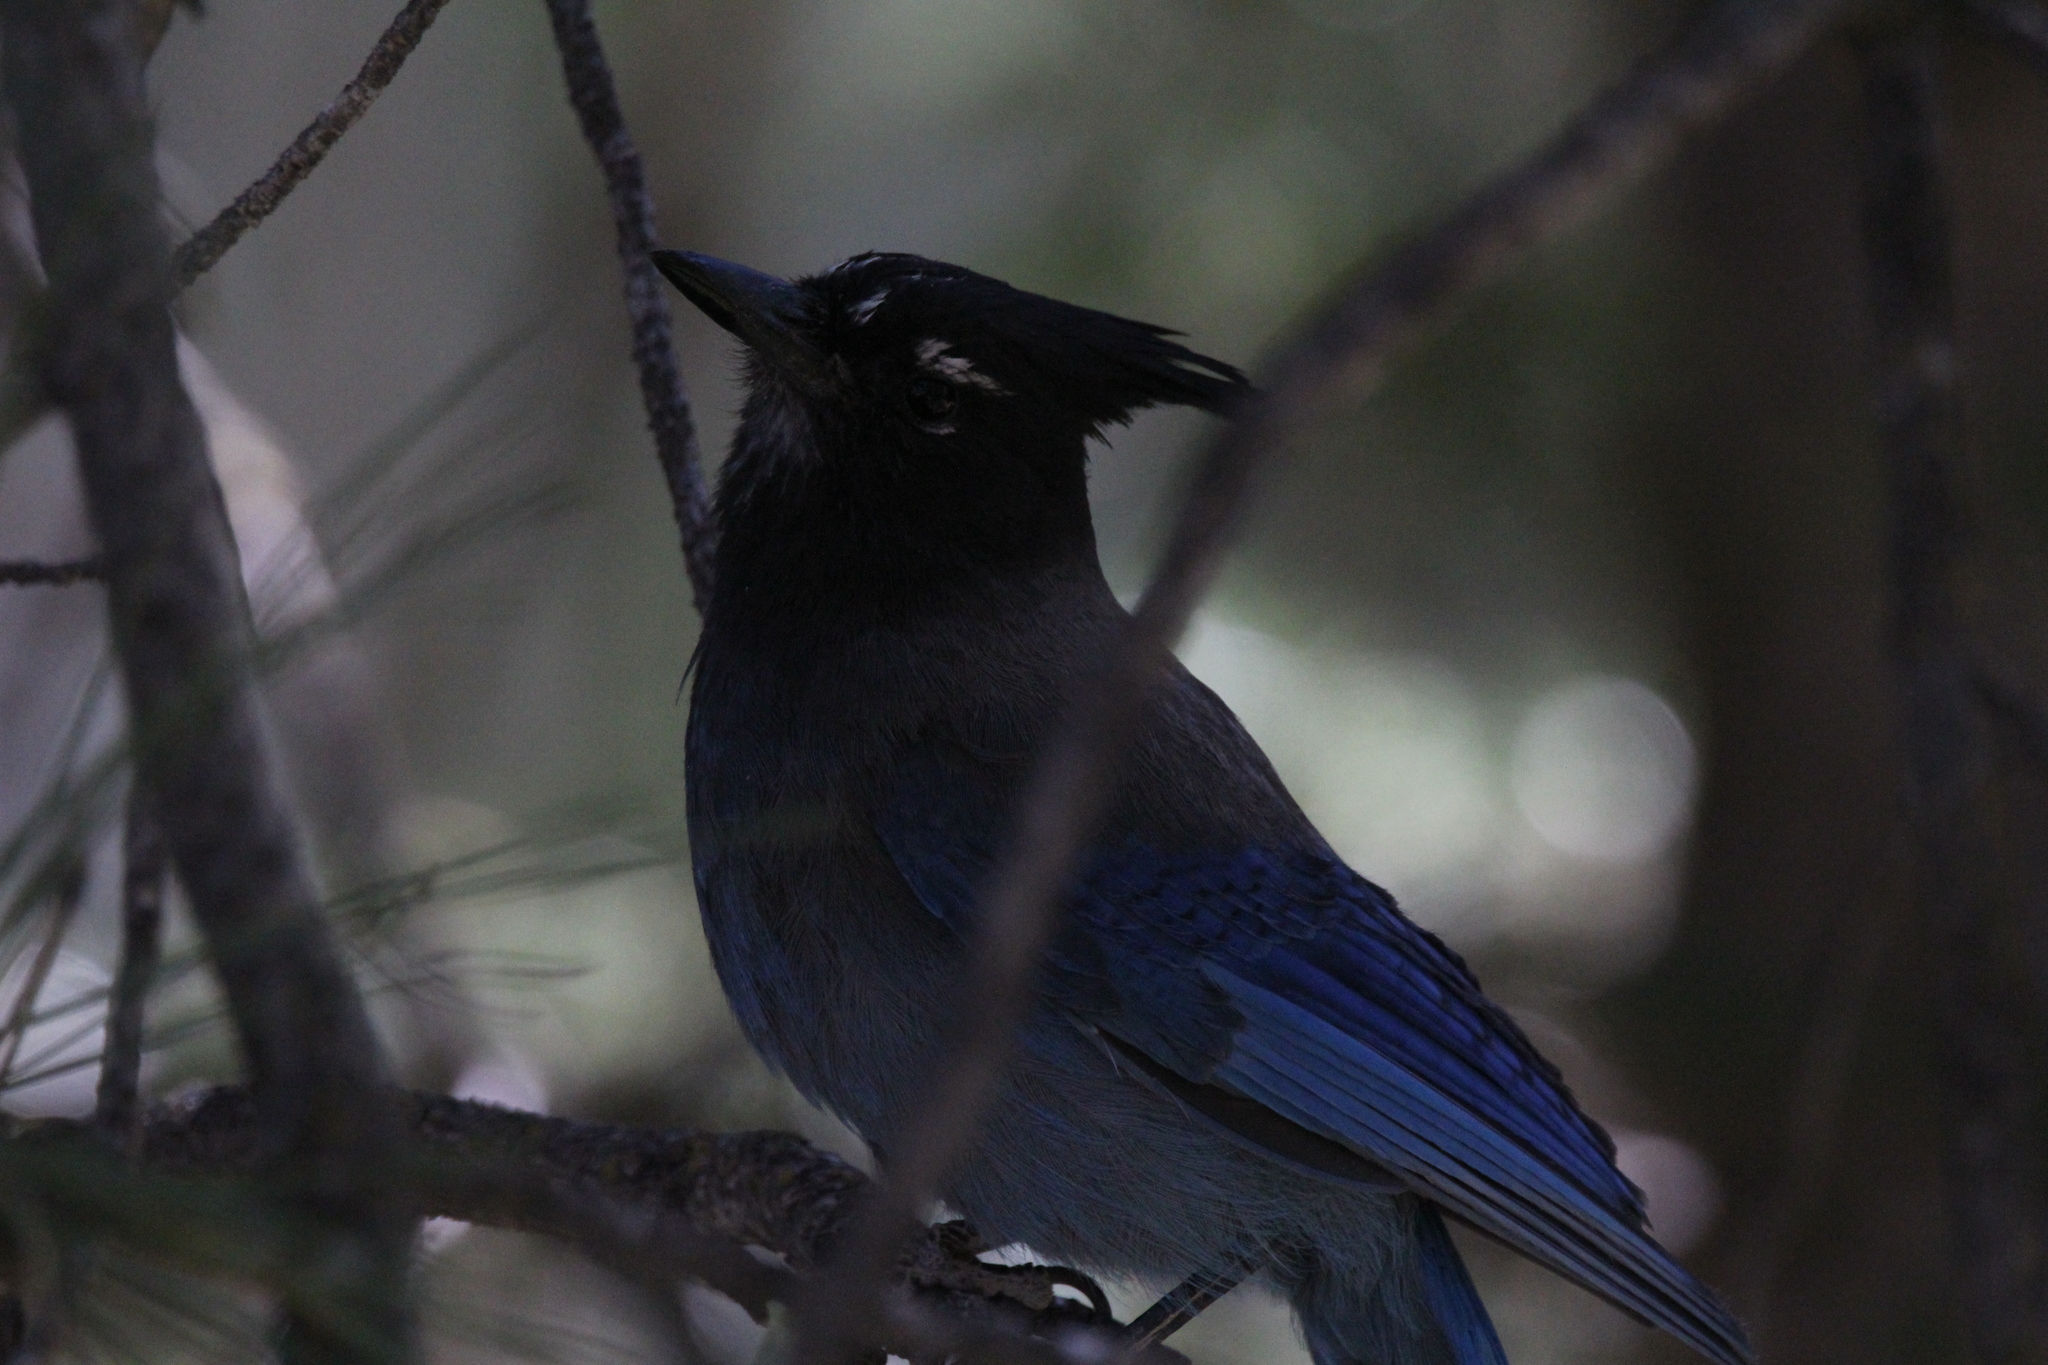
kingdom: Animalia
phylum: Chordata
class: Aves
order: Passeriformes
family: Corvidae
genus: Cyanocitta
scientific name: Cyanocitta stelleri
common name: Steller's jay
